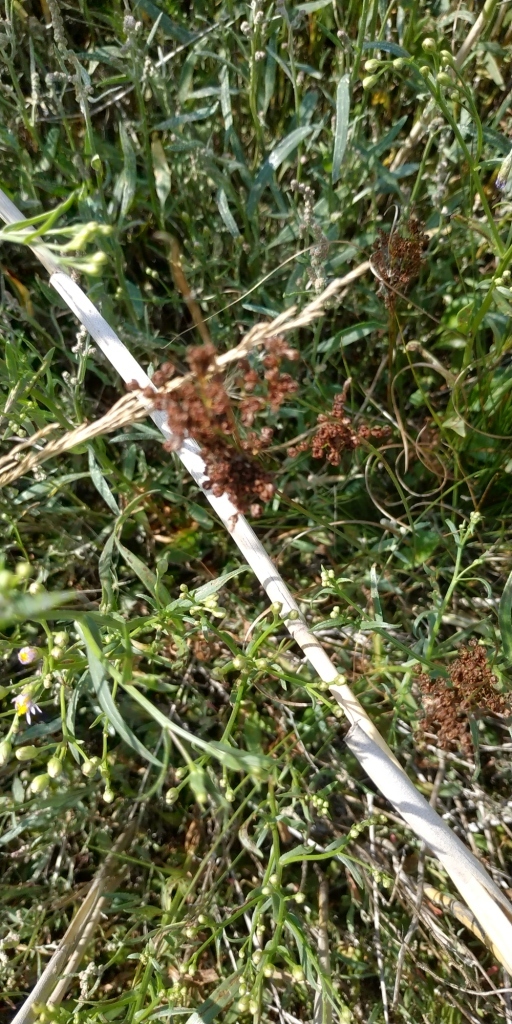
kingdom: Plantae
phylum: Tracheophyta
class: Liliopsida
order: Poales
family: Juncaceae
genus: Juncus
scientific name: Juncus compressus
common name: Round-fruited rush
